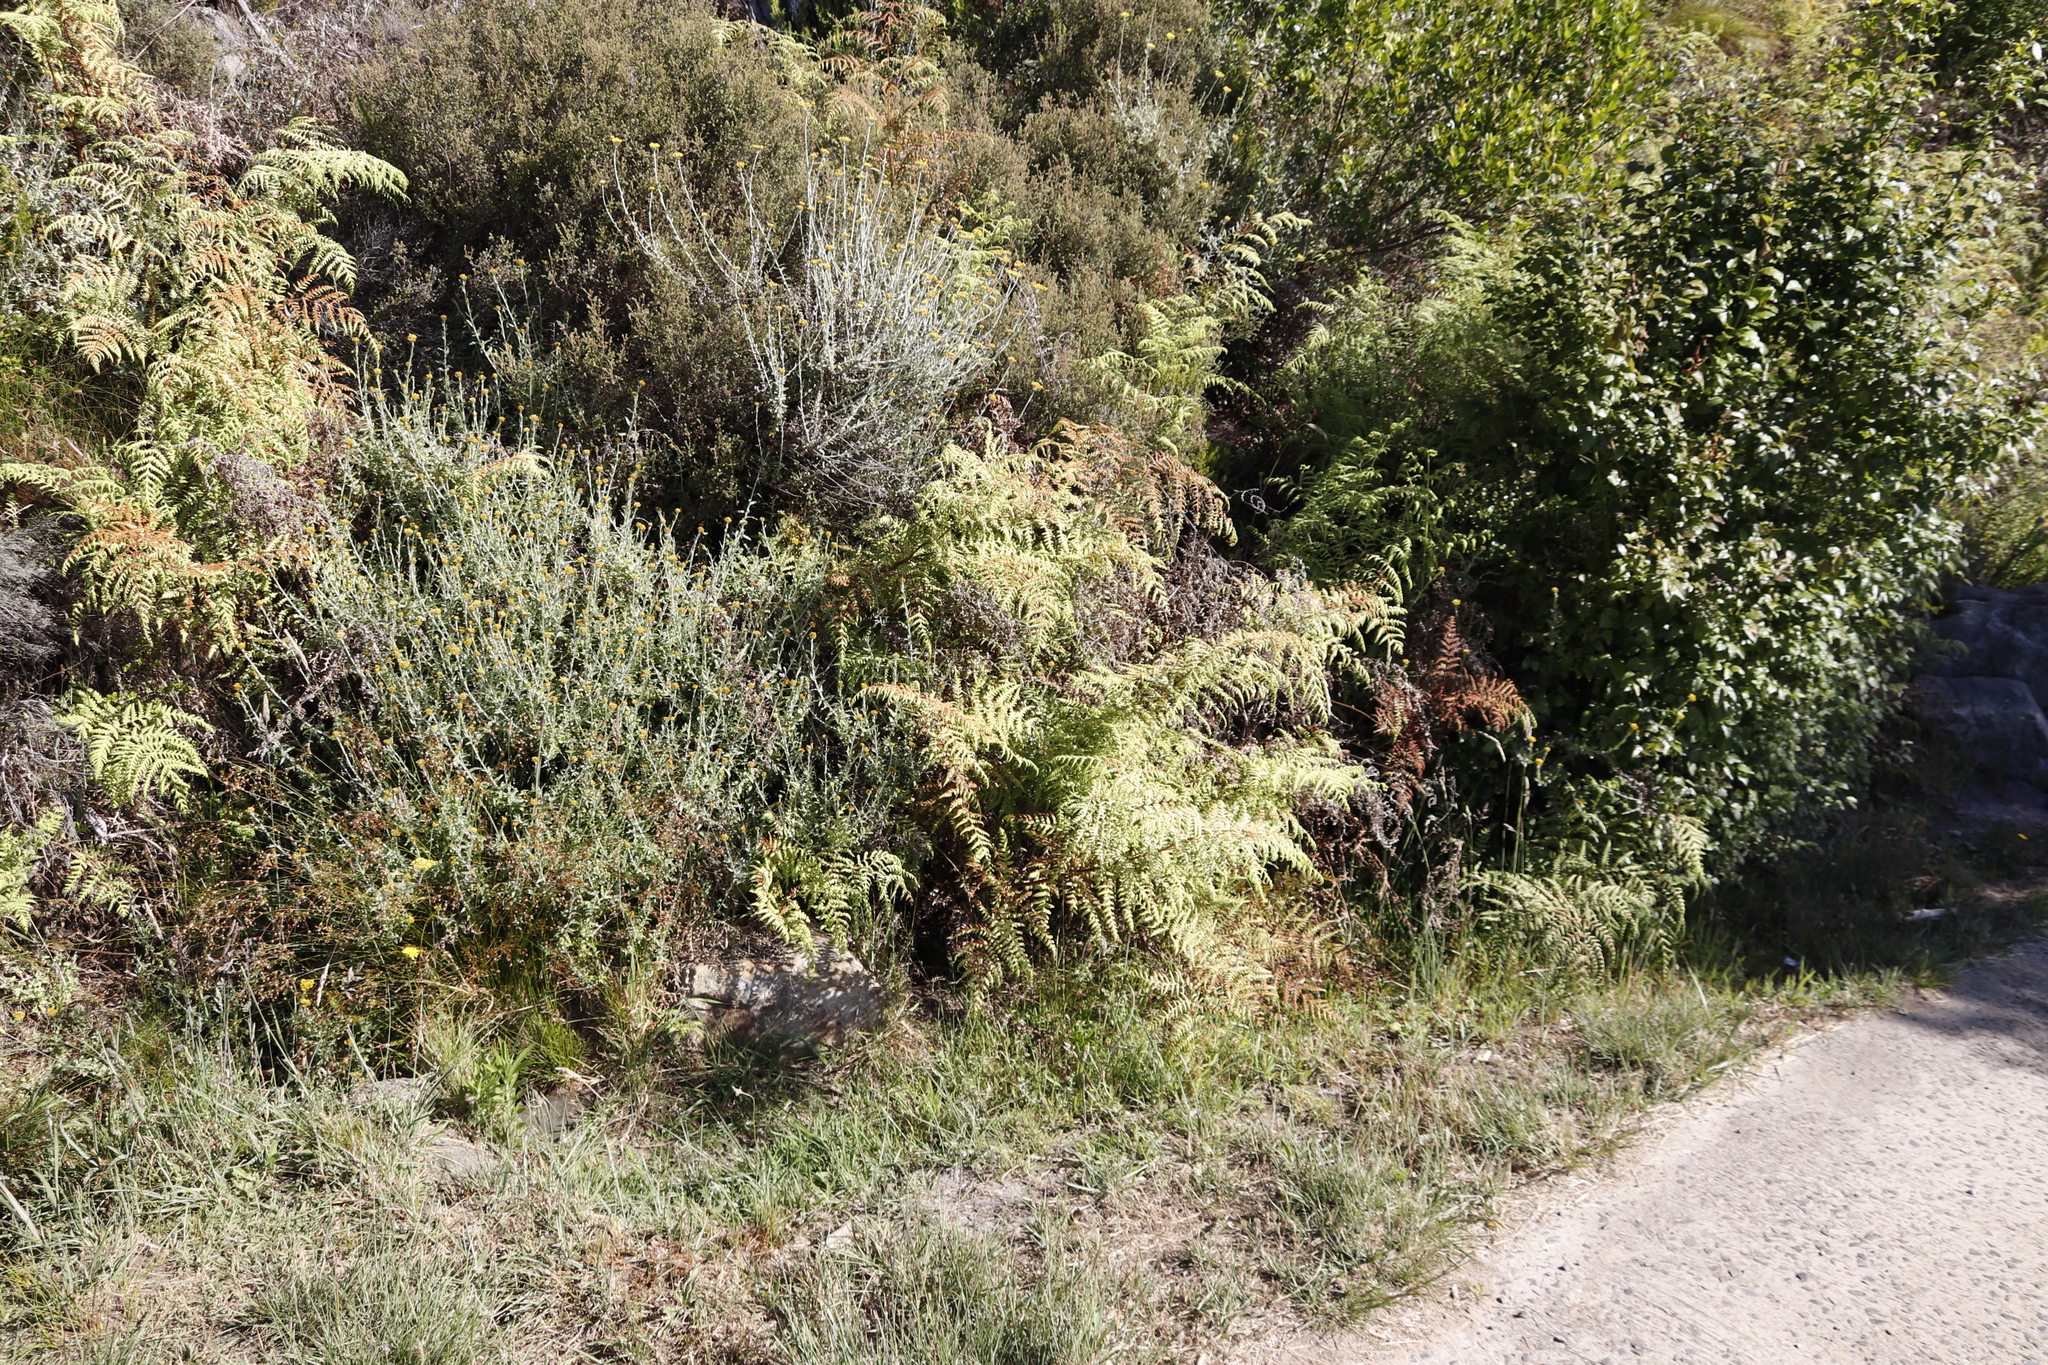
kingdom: Plantae
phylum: Tracheophyta
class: Polypodiopsida
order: Polypodiales
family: Dennstaedtiaceae
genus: Histiopteris
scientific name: Histiopteris incisa
